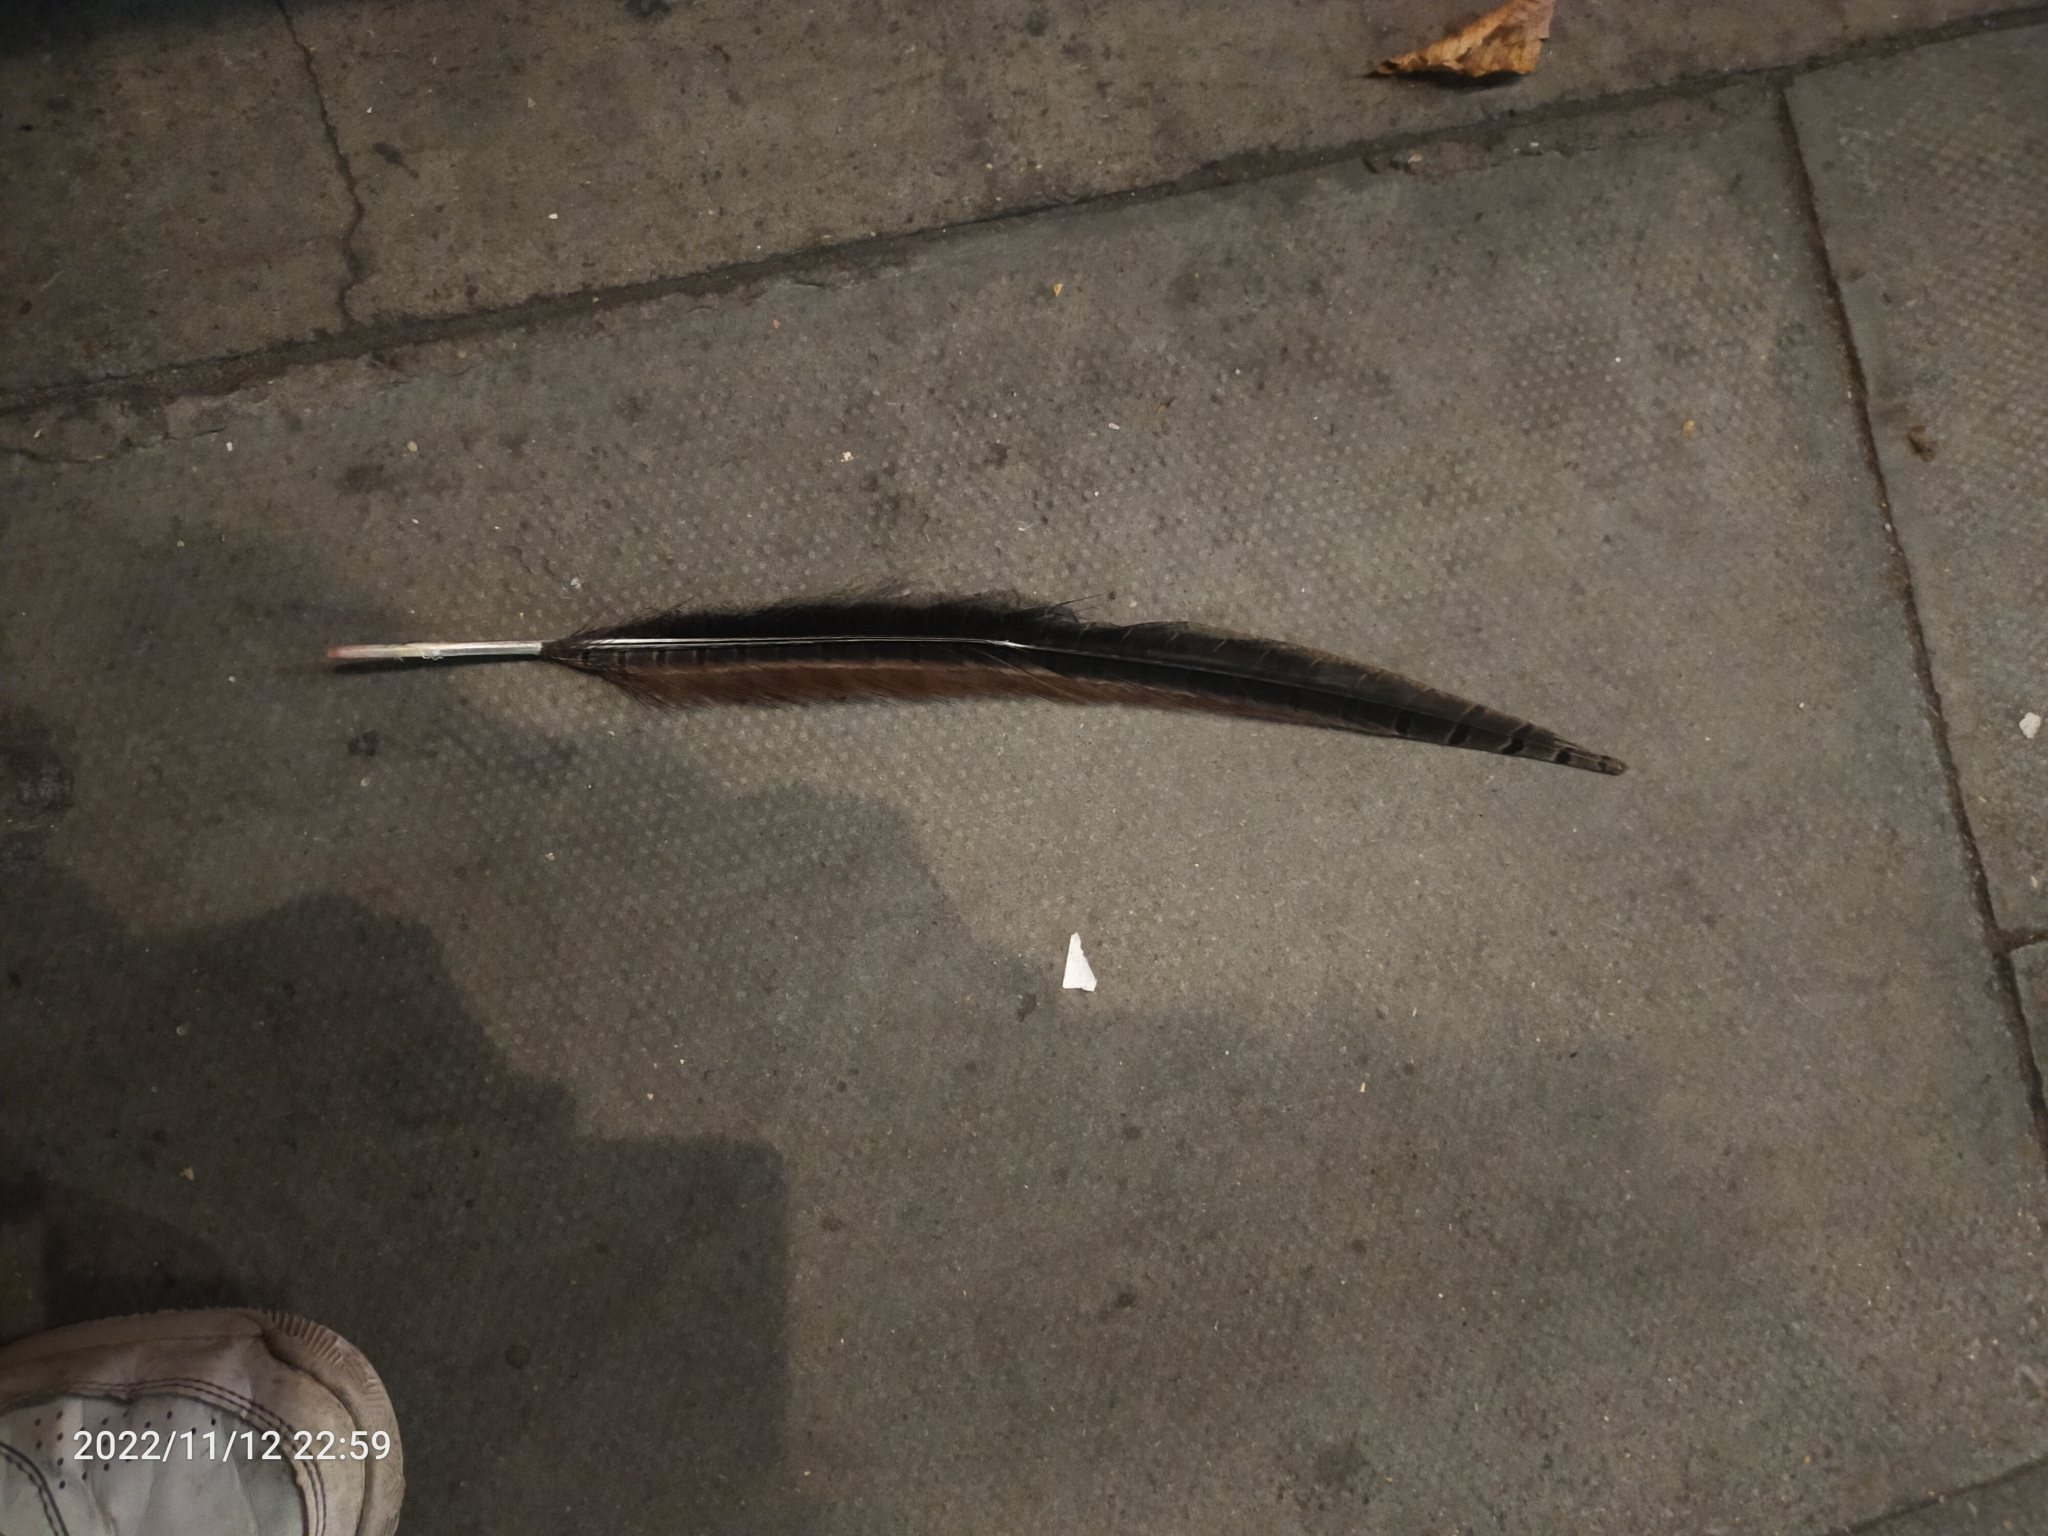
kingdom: Animalia
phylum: Chordata
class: Aves
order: Galliformes
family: Phasianidae
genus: Phasianus
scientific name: Phasianus colchicus
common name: Common pheasant
